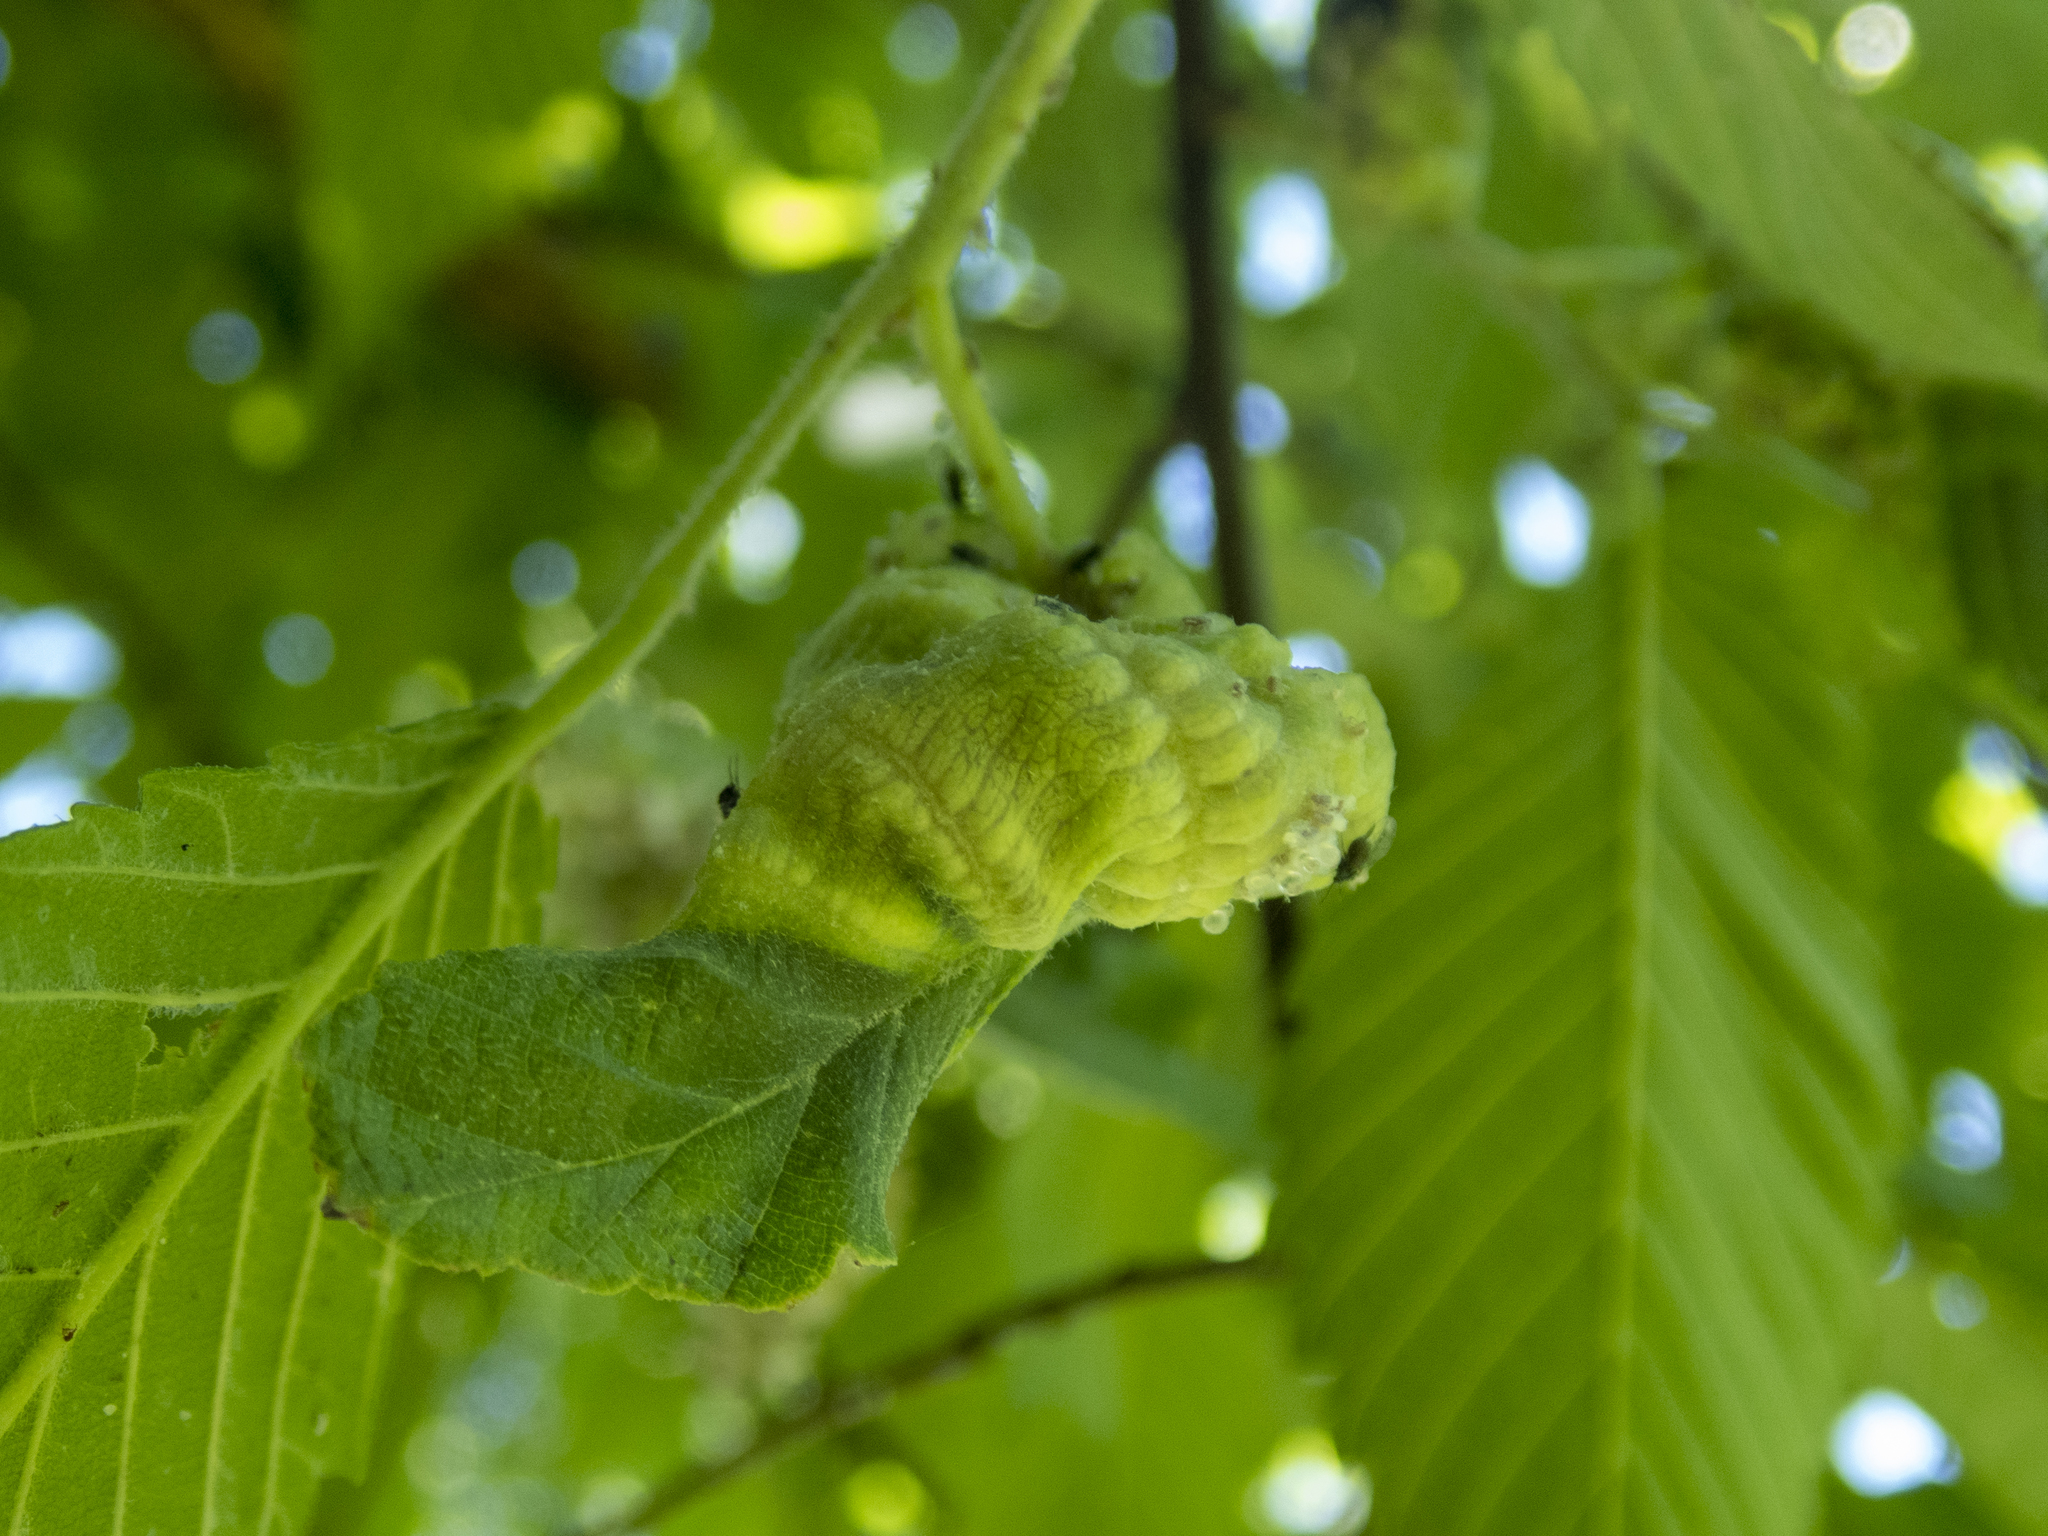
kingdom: Animalia
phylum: Arthropoda
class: Insecta
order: Hemiptera
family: Aphididae
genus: Eriosoma
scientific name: Eriosoma americanum
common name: Woolly elm aphid
